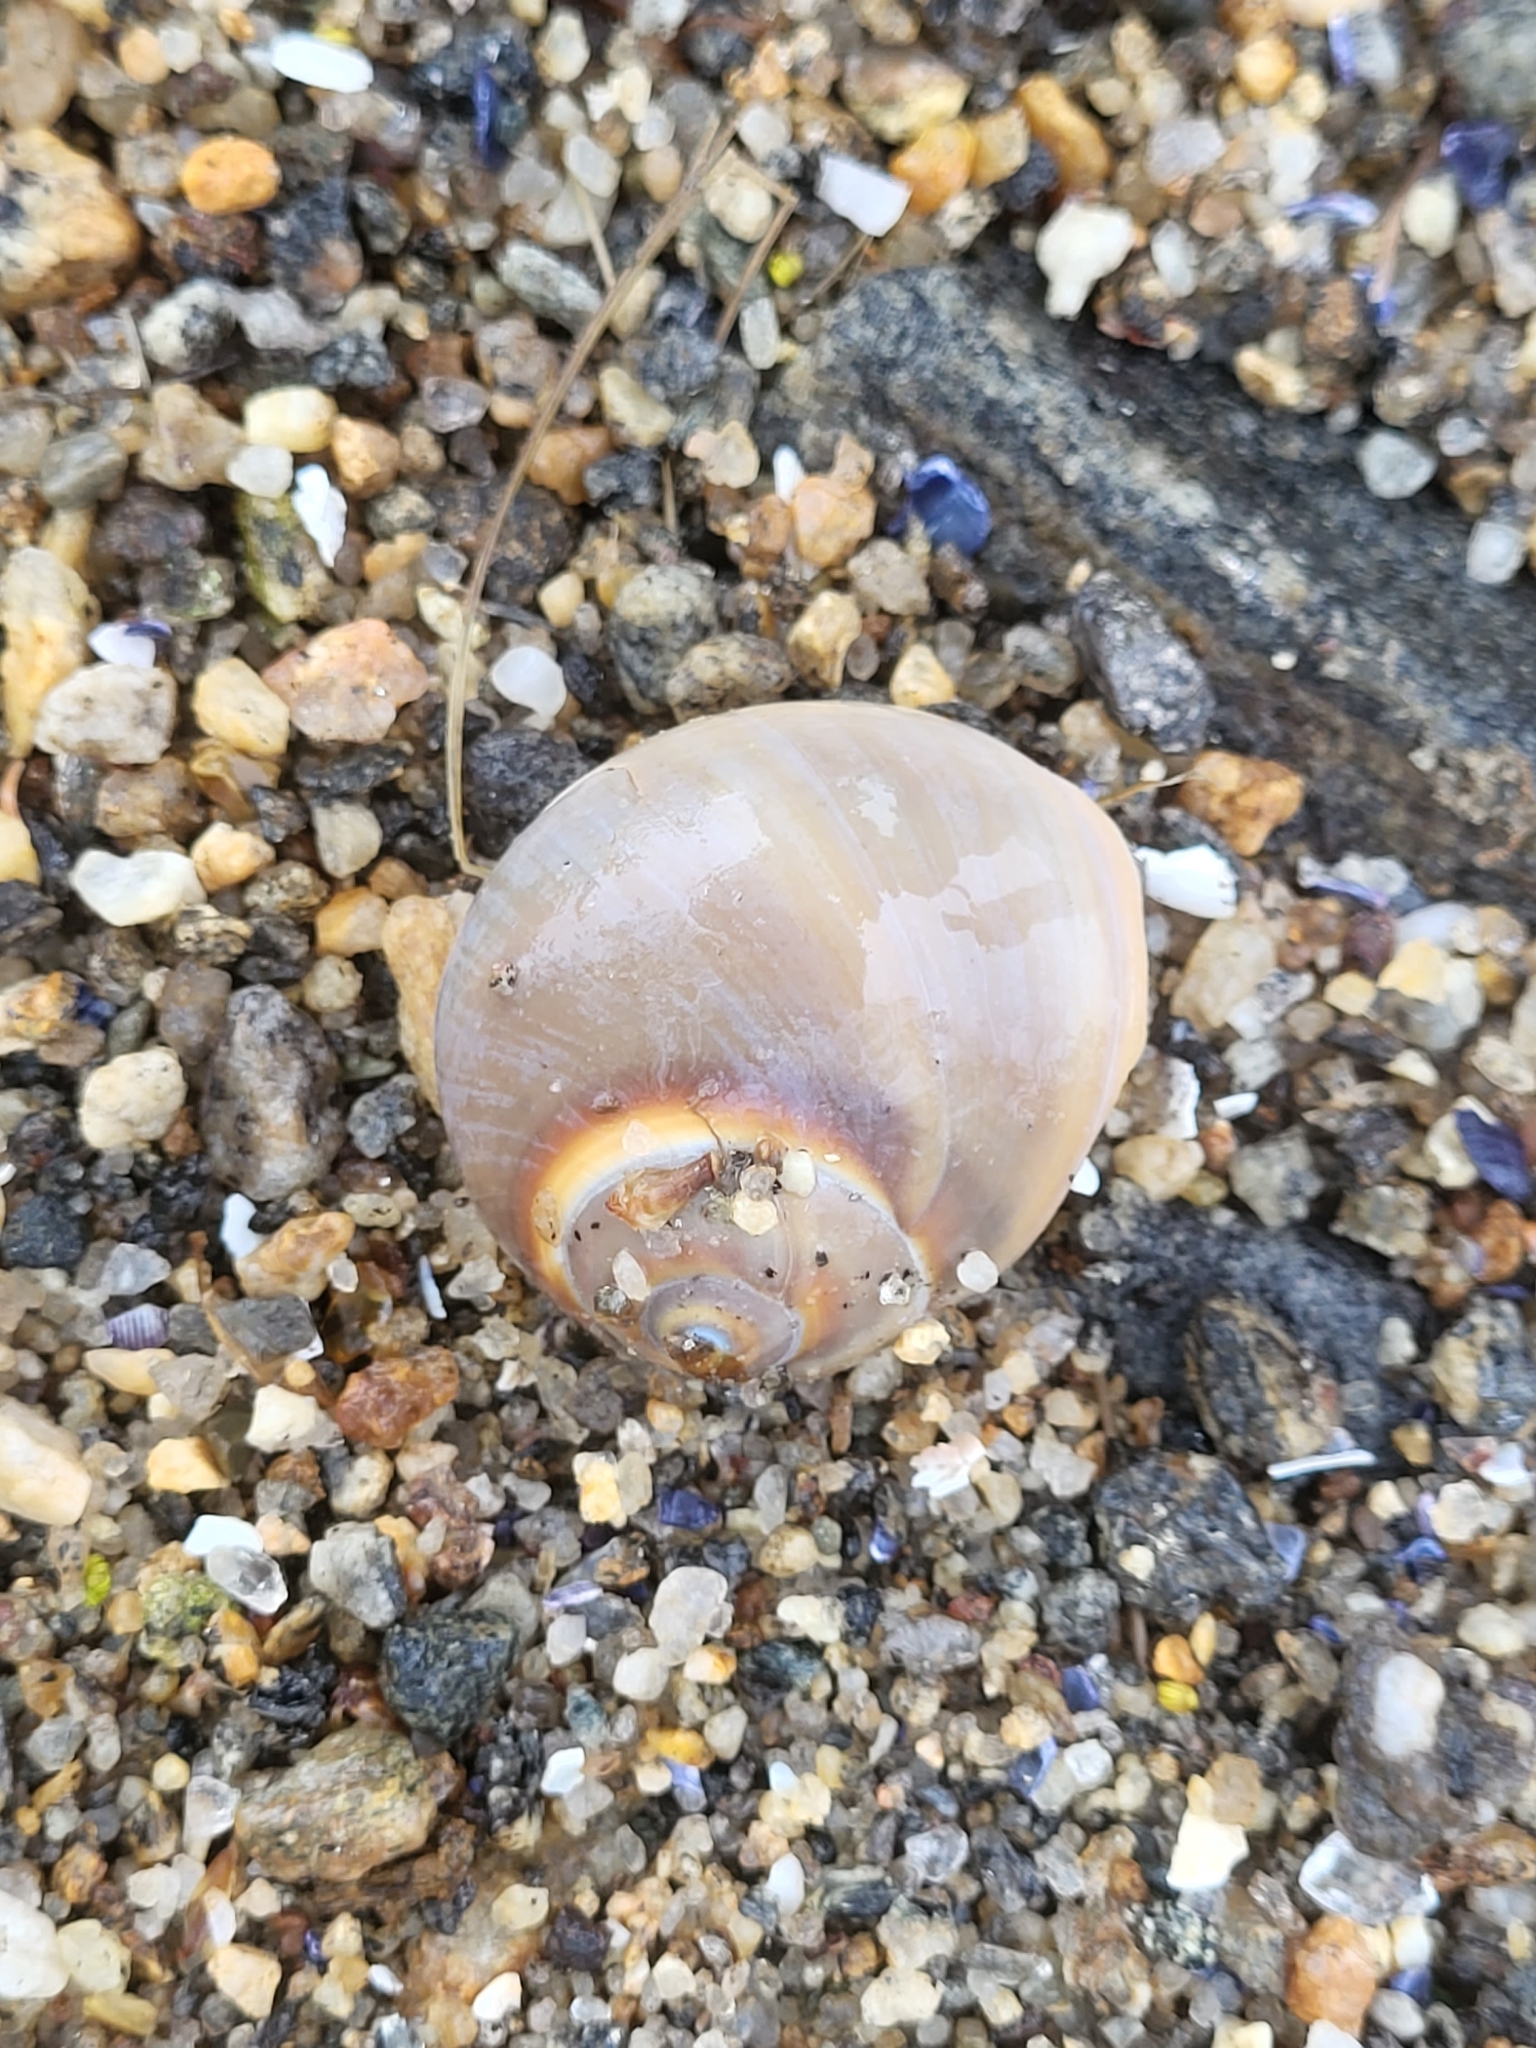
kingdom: Animalia
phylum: Mollusca
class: Gastropoda
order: Littorinimorpha
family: Naticidae
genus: Neverita
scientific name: Neverita duplicata
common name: Lobed moonsnail
